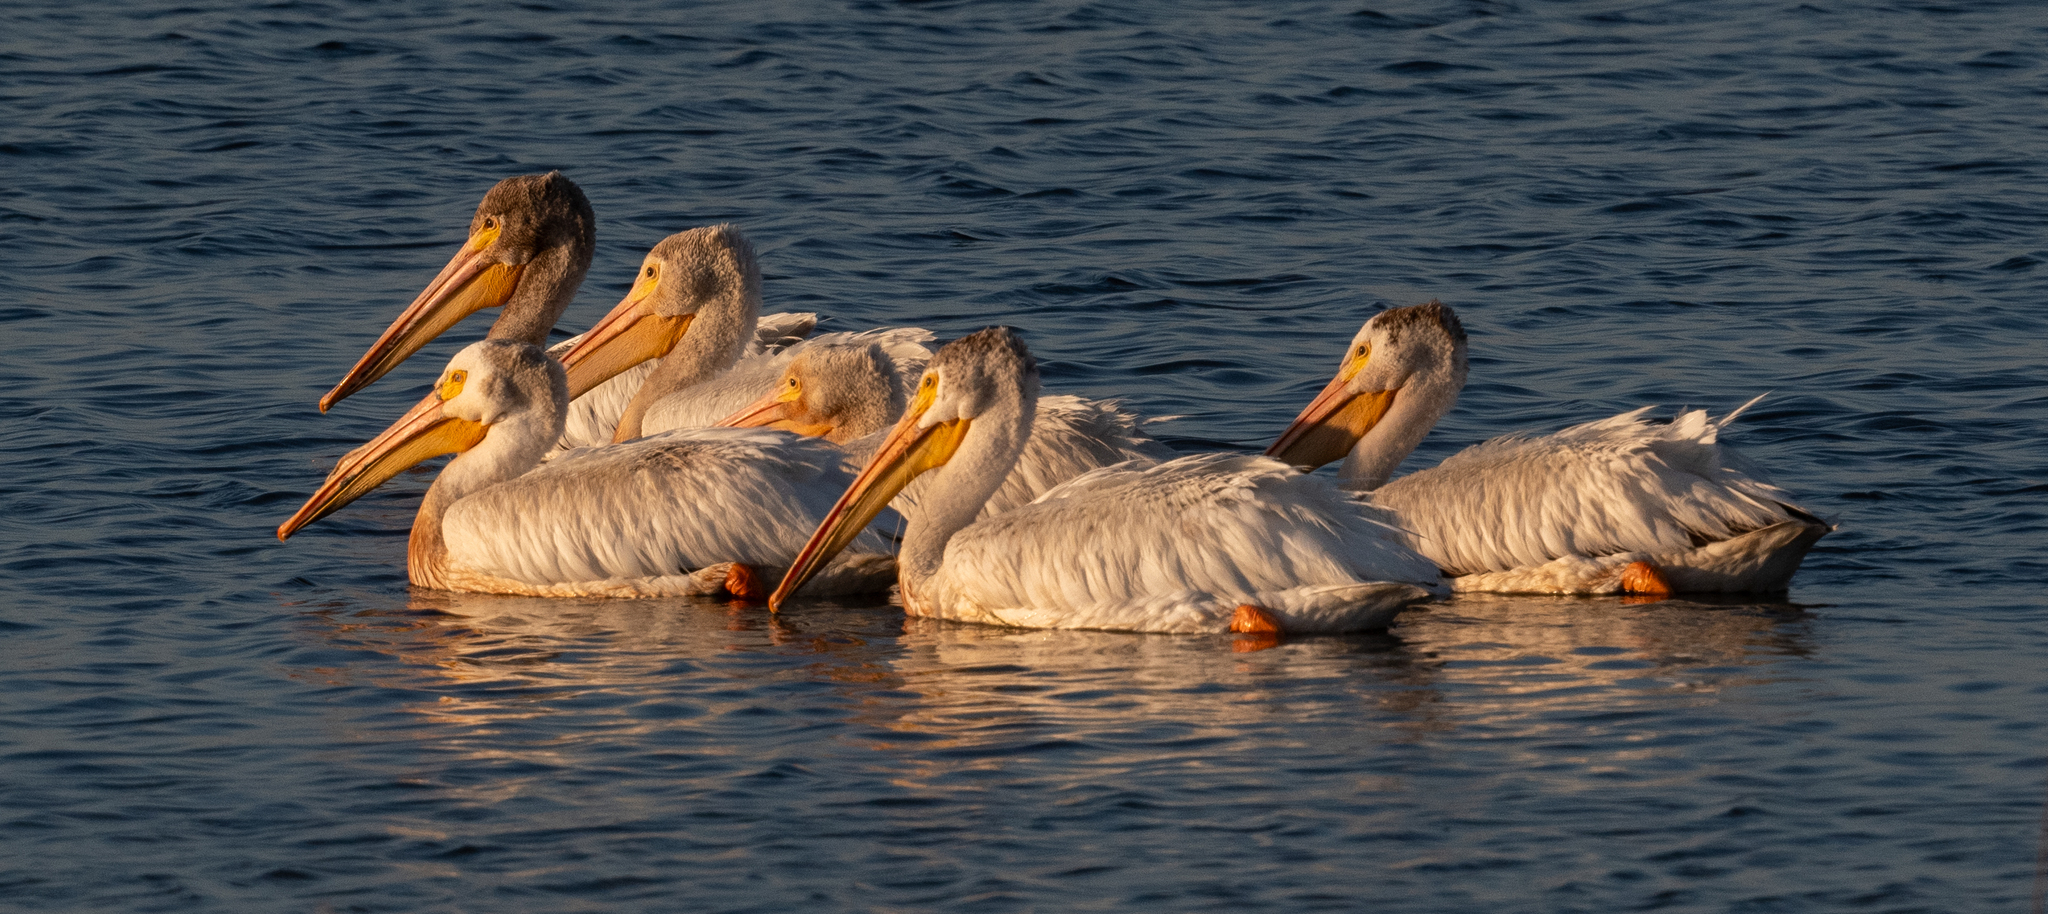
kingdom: Animalia
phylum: Chordata
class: Aves
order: Pelecaniformes
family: Pelecanidae
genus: Pelecanus
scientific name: Pelecanus erythrorhynchos
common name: American white pelican
